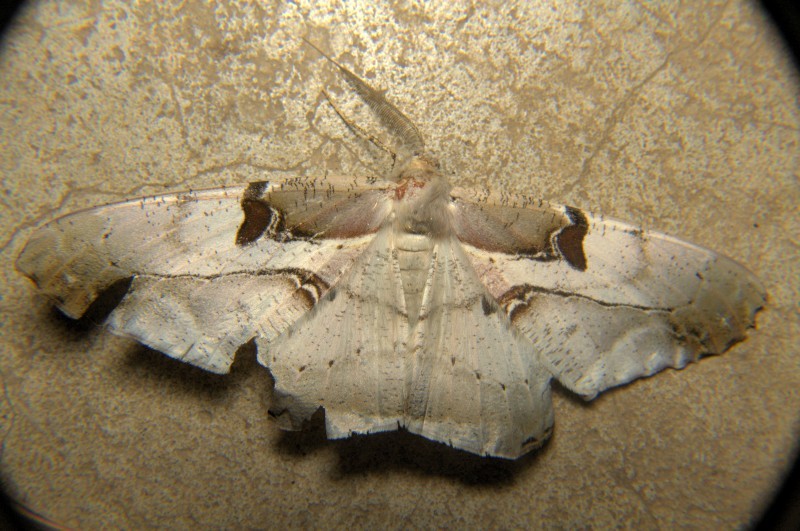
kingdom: Animalia
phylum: Arthropoda
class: Insecta
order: Lepidoptera
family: Geometridae
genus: Chorodna
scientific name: Chorodna erebusaria
